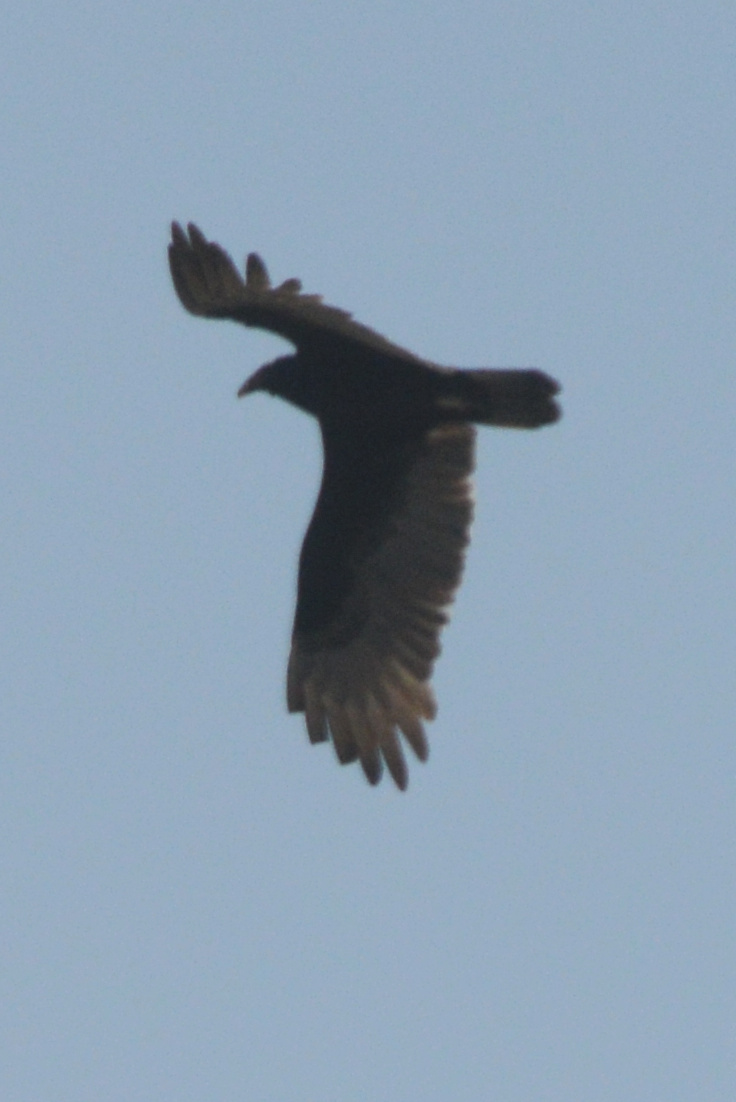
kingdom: Animalia
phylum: Chordata
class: Aves
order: Accipitriformes
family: Cathartidae
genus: Cathartes
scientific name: Cathartes aura
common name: Turkey vulture
